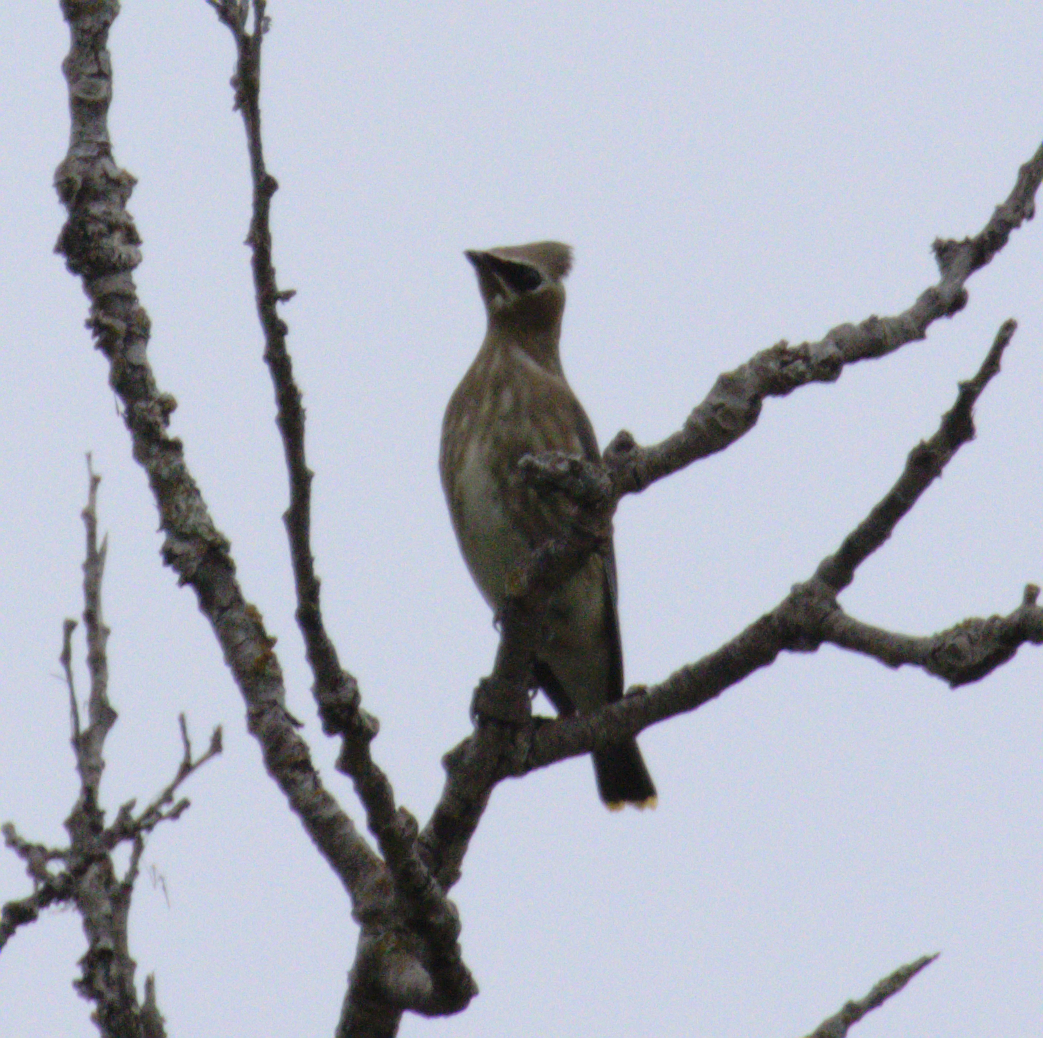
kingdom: Animalia
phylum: Chordata
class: Aves
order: Passeriformes
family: Bombycillidae
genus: Bombycilla
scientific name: Bombycilla cedrorum
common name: Cedar waxwing
